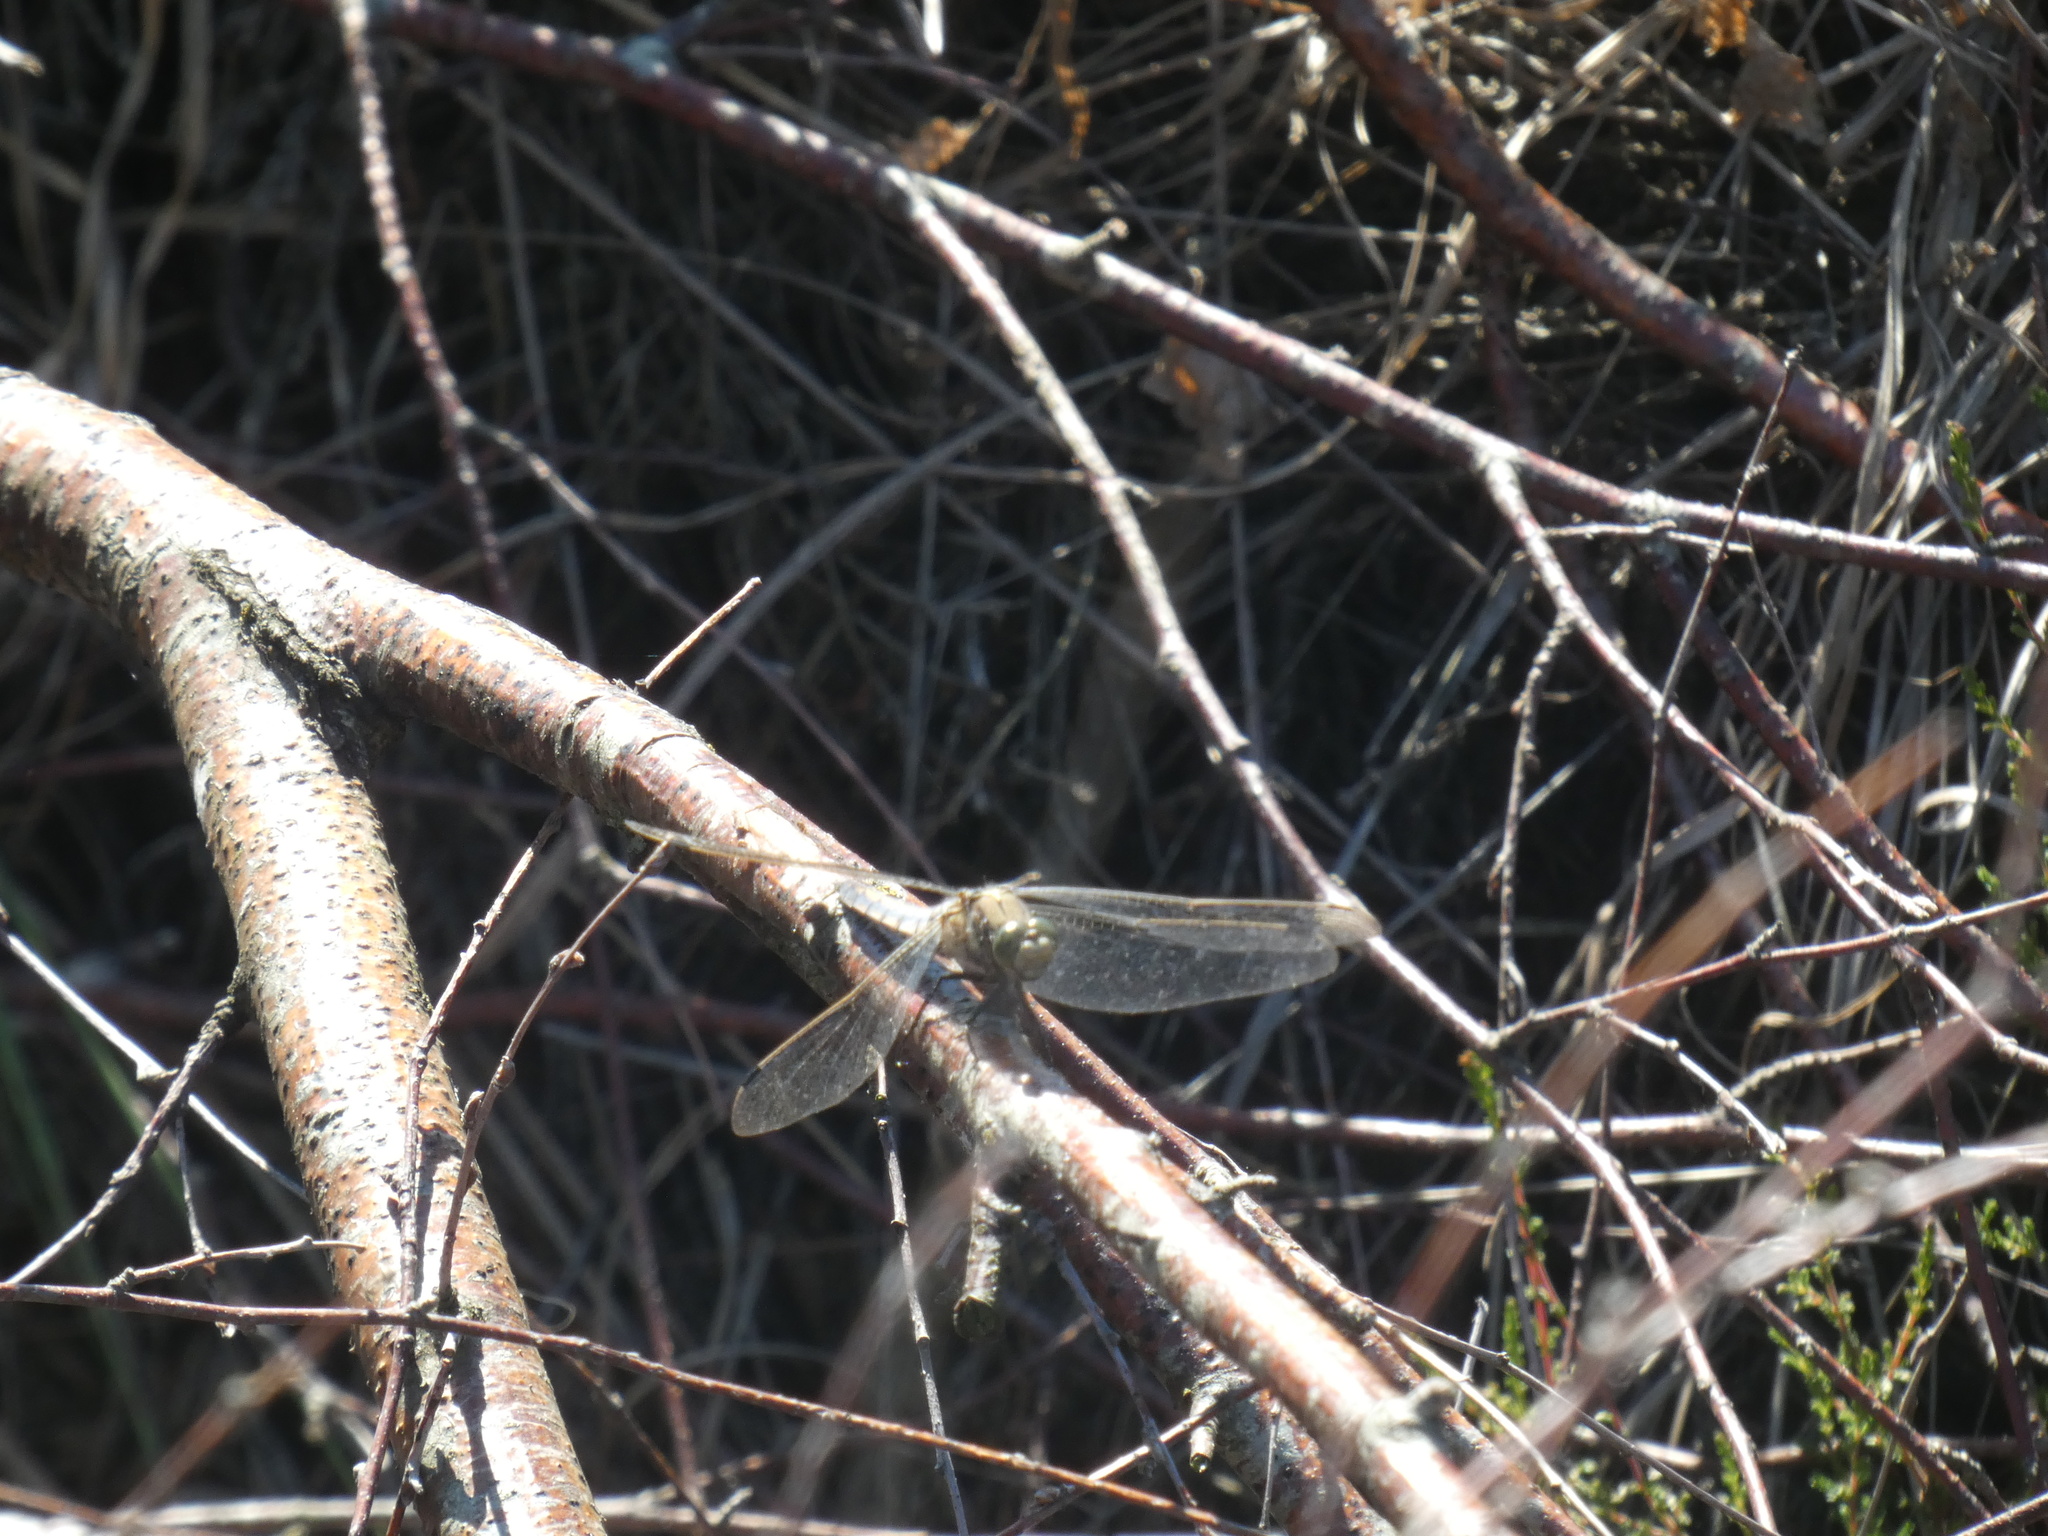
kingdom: Animalia
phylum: Arthropoda
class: Insecta
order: Odonata
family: Libellulidae
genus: Orthetrum
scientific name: Orthetrum cancellatum
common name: Black-tailed skimmer
